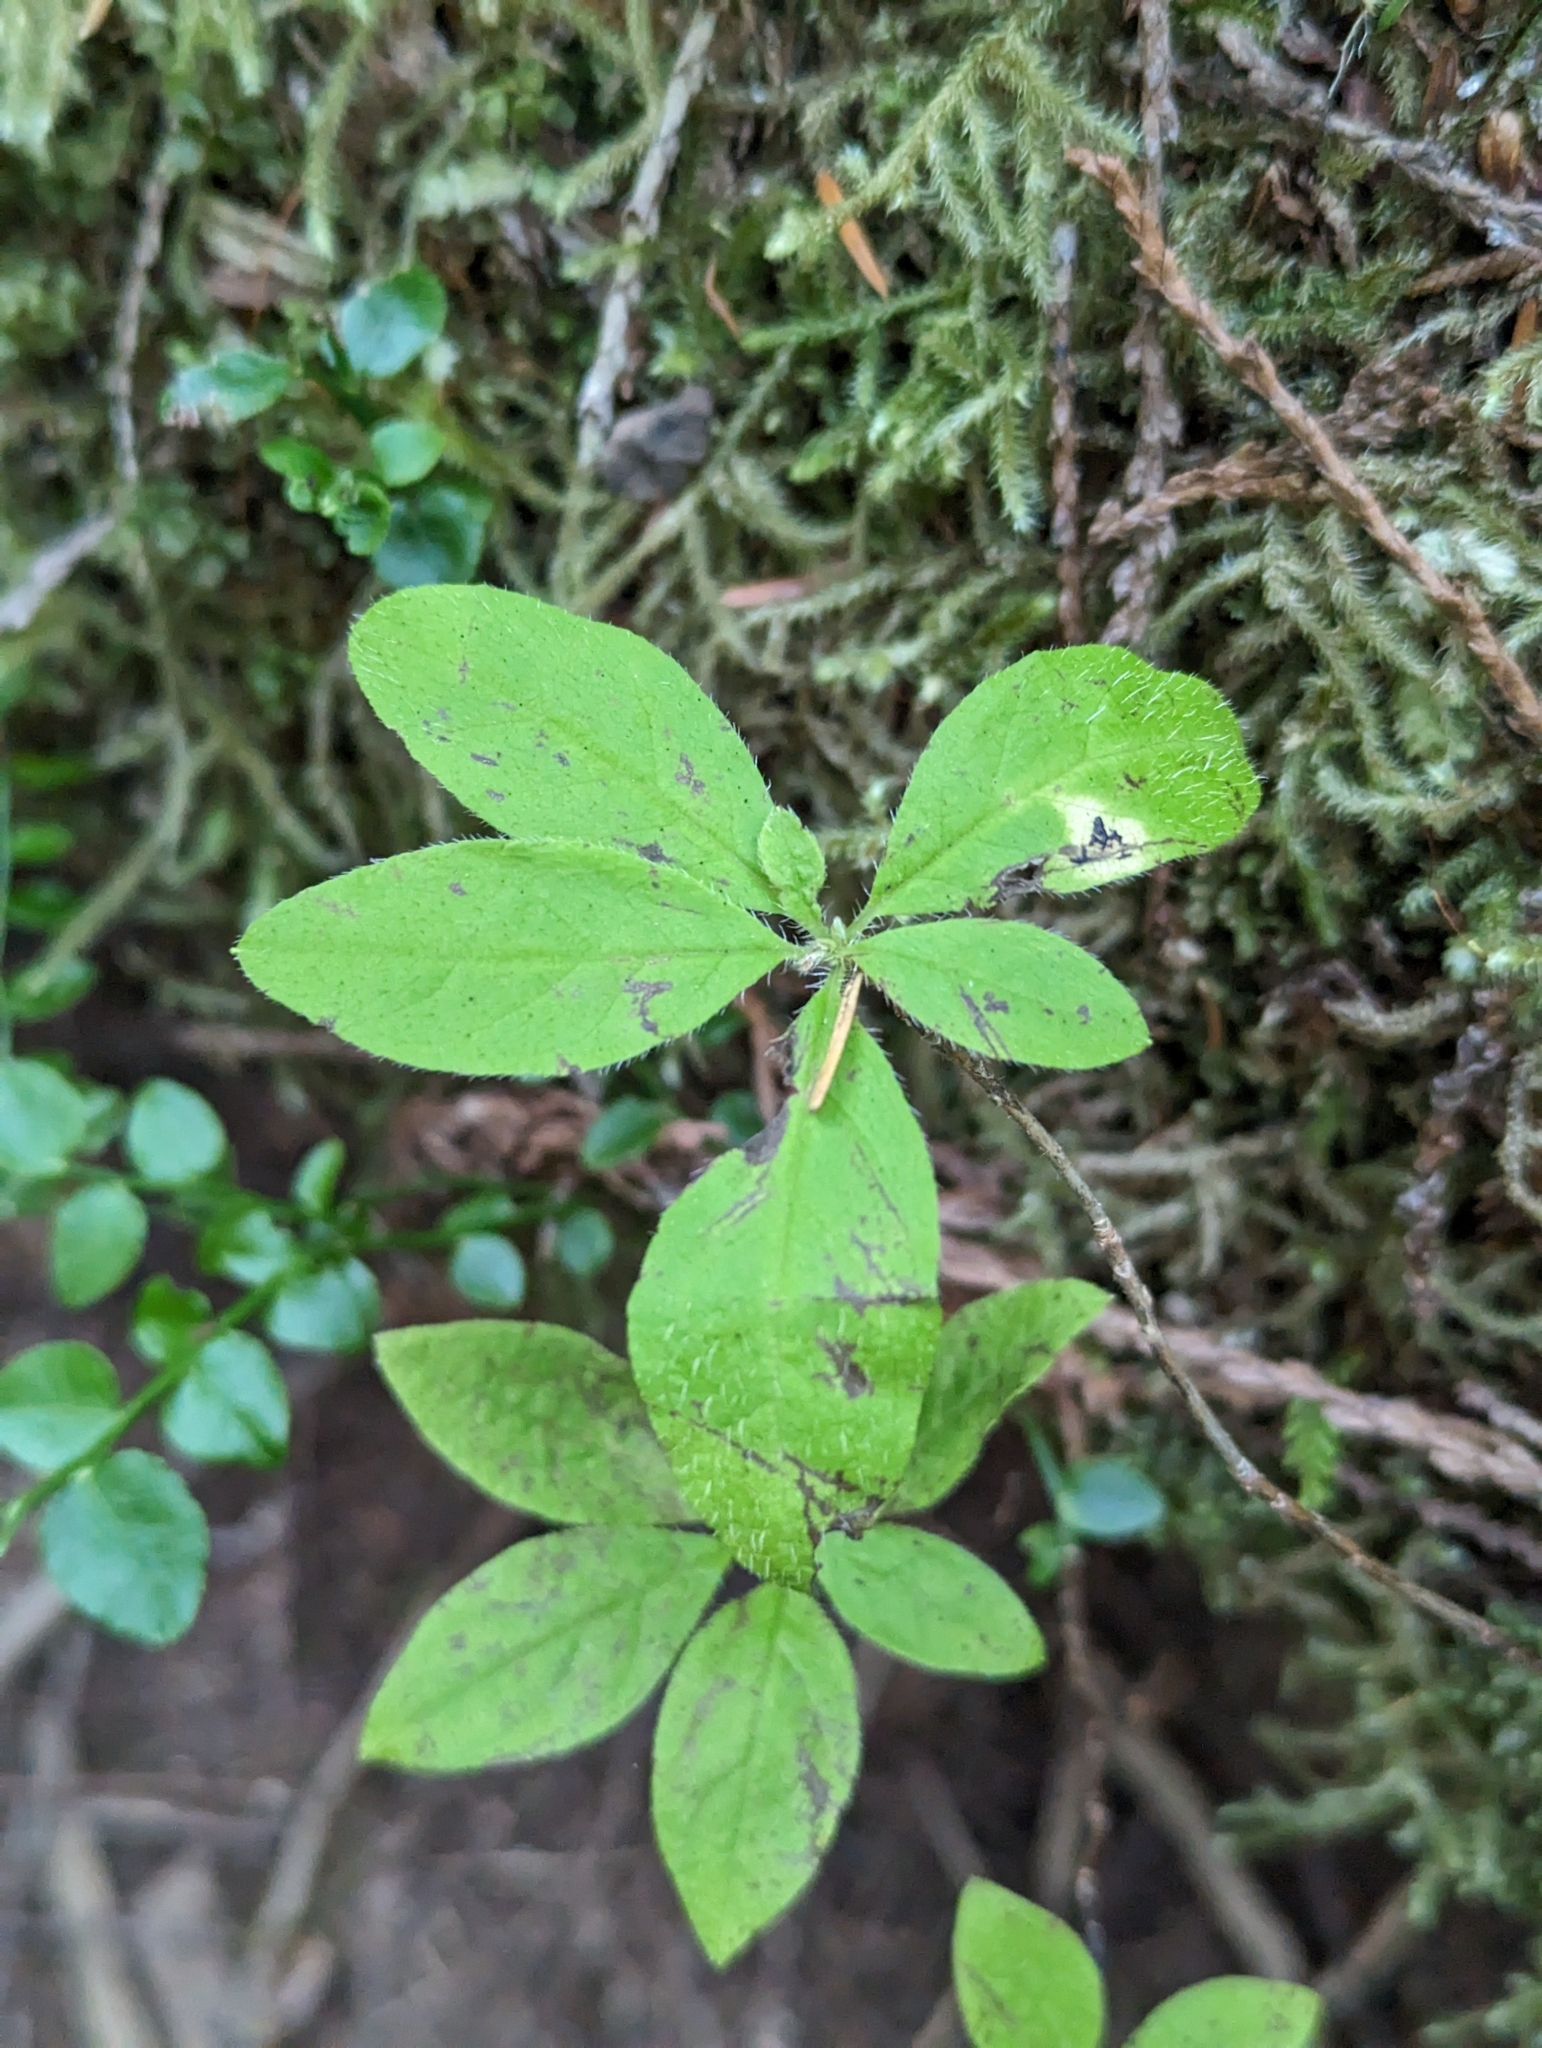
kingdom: Plantae
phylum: Tracheophyta
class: Magnoliopsida
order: Ericales
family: Ericaceae
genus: Rhododendron
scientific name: Rhododendron menziesii
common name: Pacific menziesia
